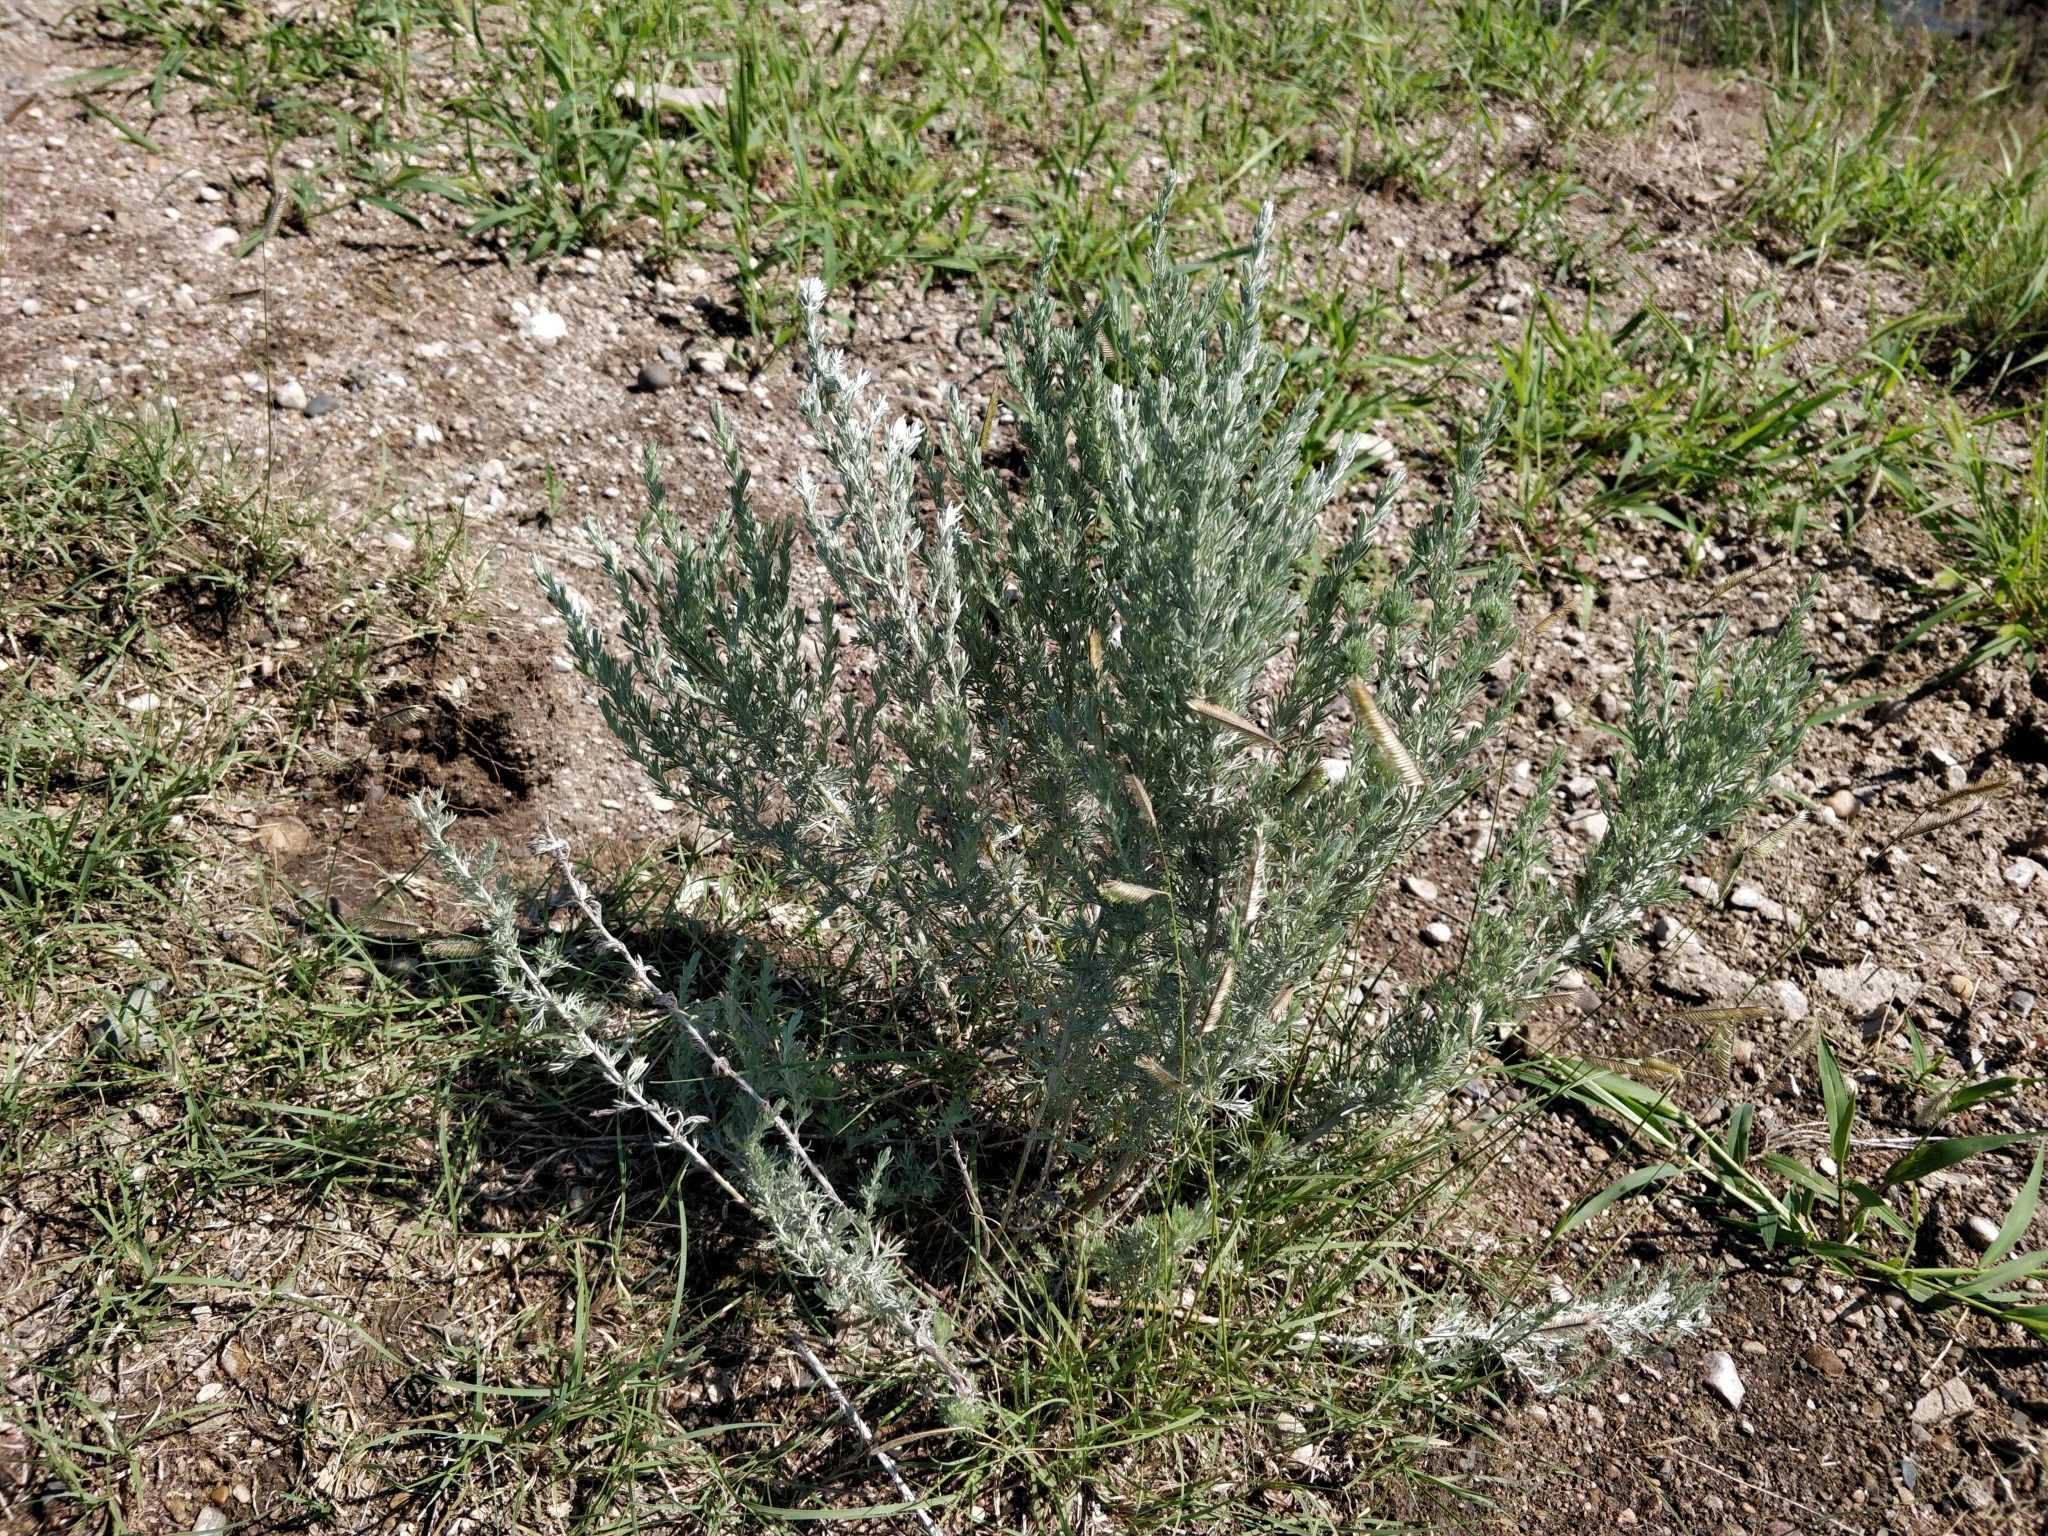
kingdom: Plantae
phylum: Tracheophyta
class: Magnoliopsida
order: Asterales
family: Asteraceae
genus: Artemisia
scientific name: Artemisia frigida
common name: Prairie sagewort
